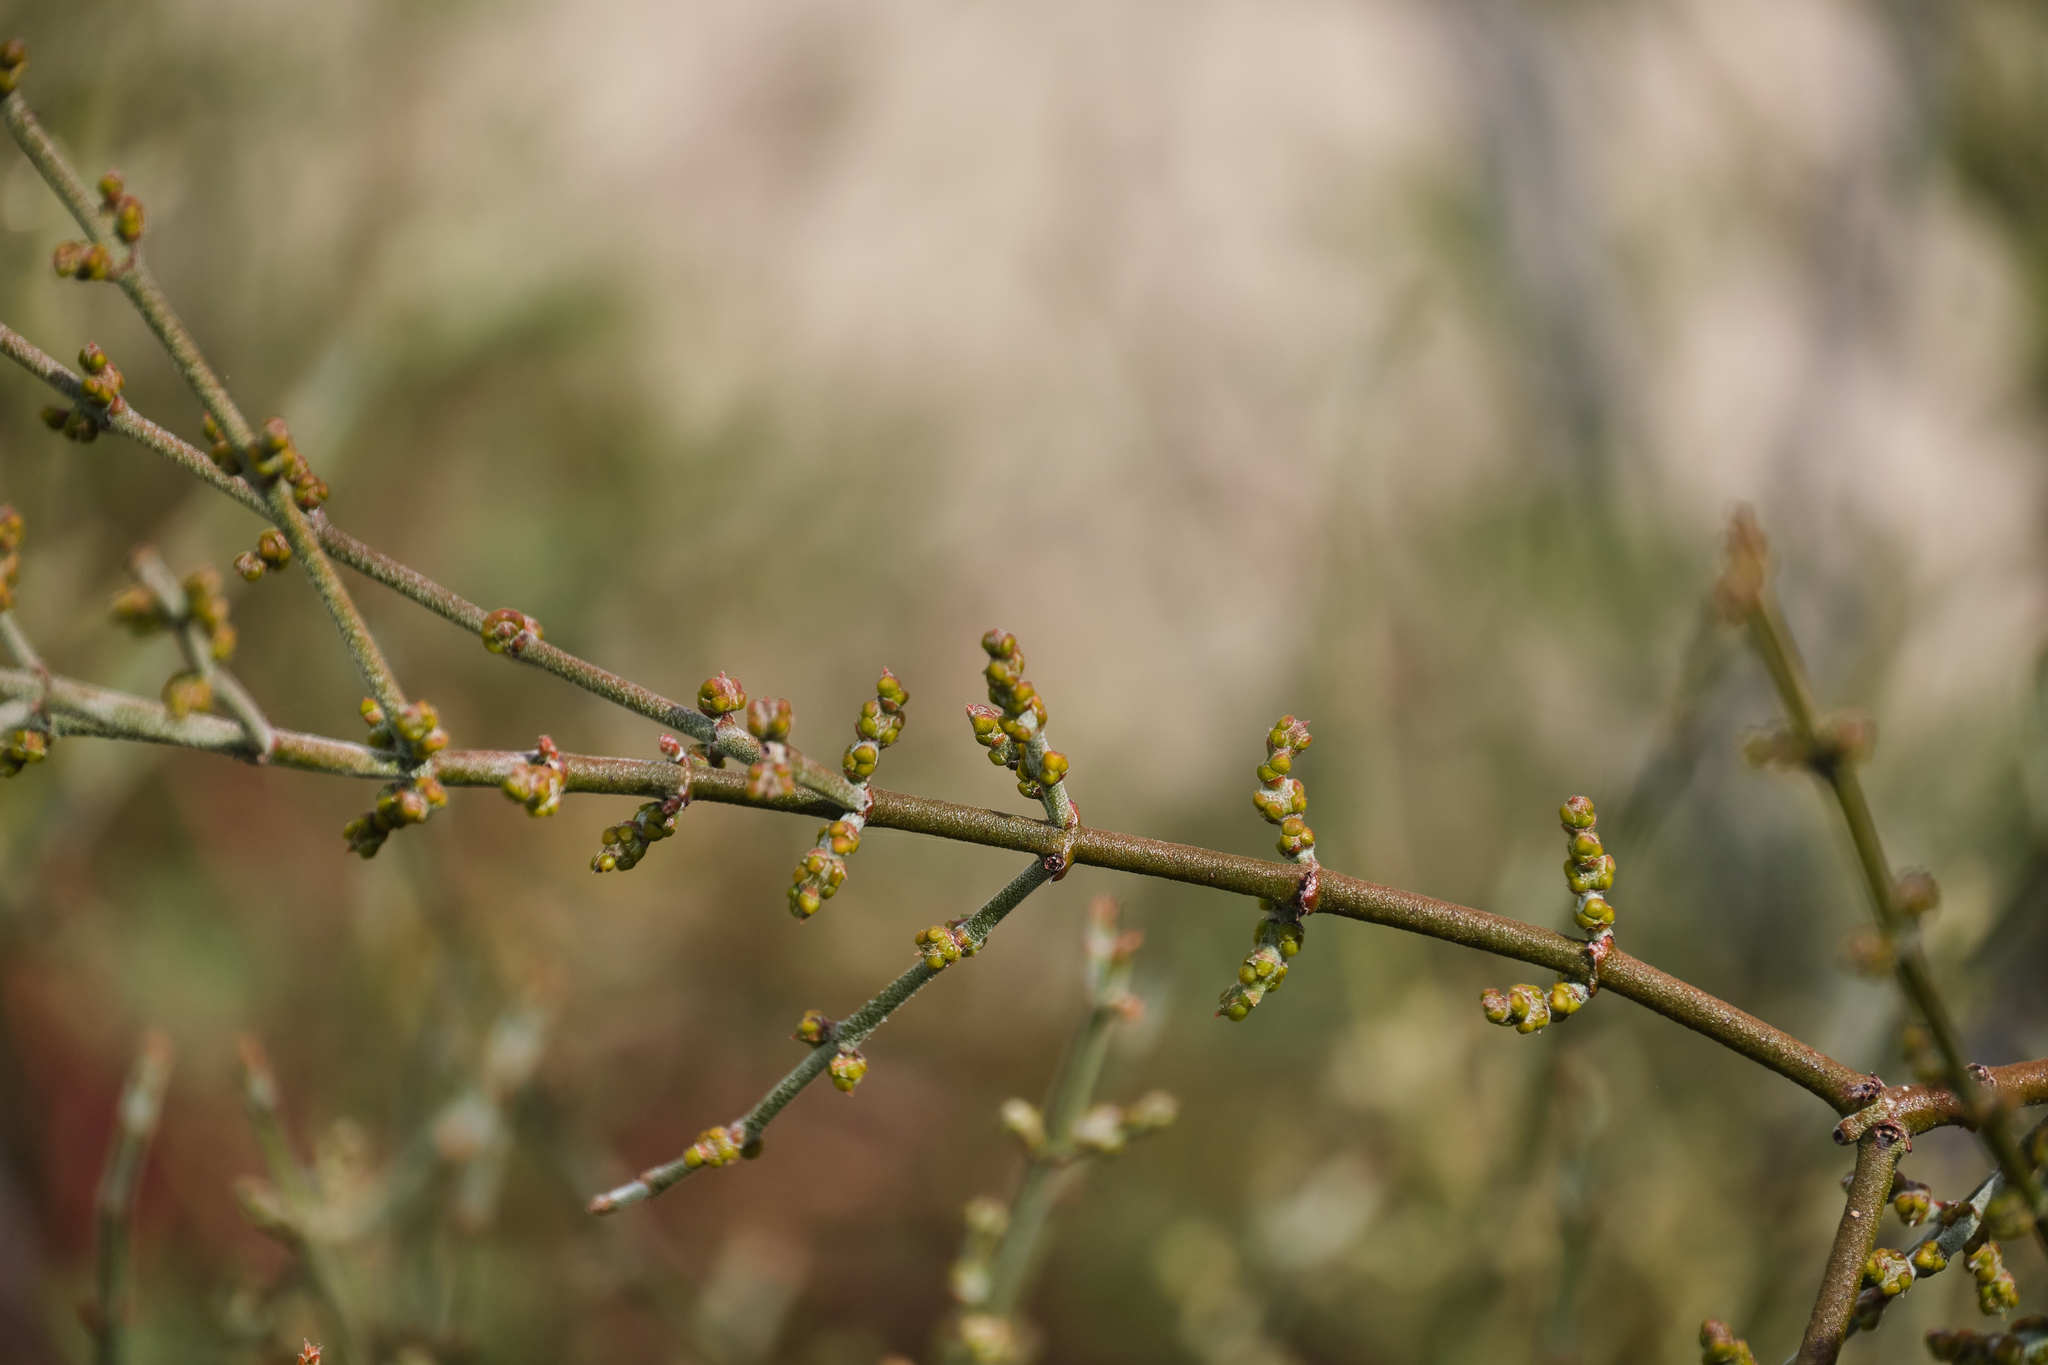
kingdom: Plantae
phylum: Tracheophyta
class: Magnoliopsida
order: Santalales
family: Viscaceae
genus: Phoradendron
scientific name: Phoradendron californicum
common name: Acacia mistletoe
